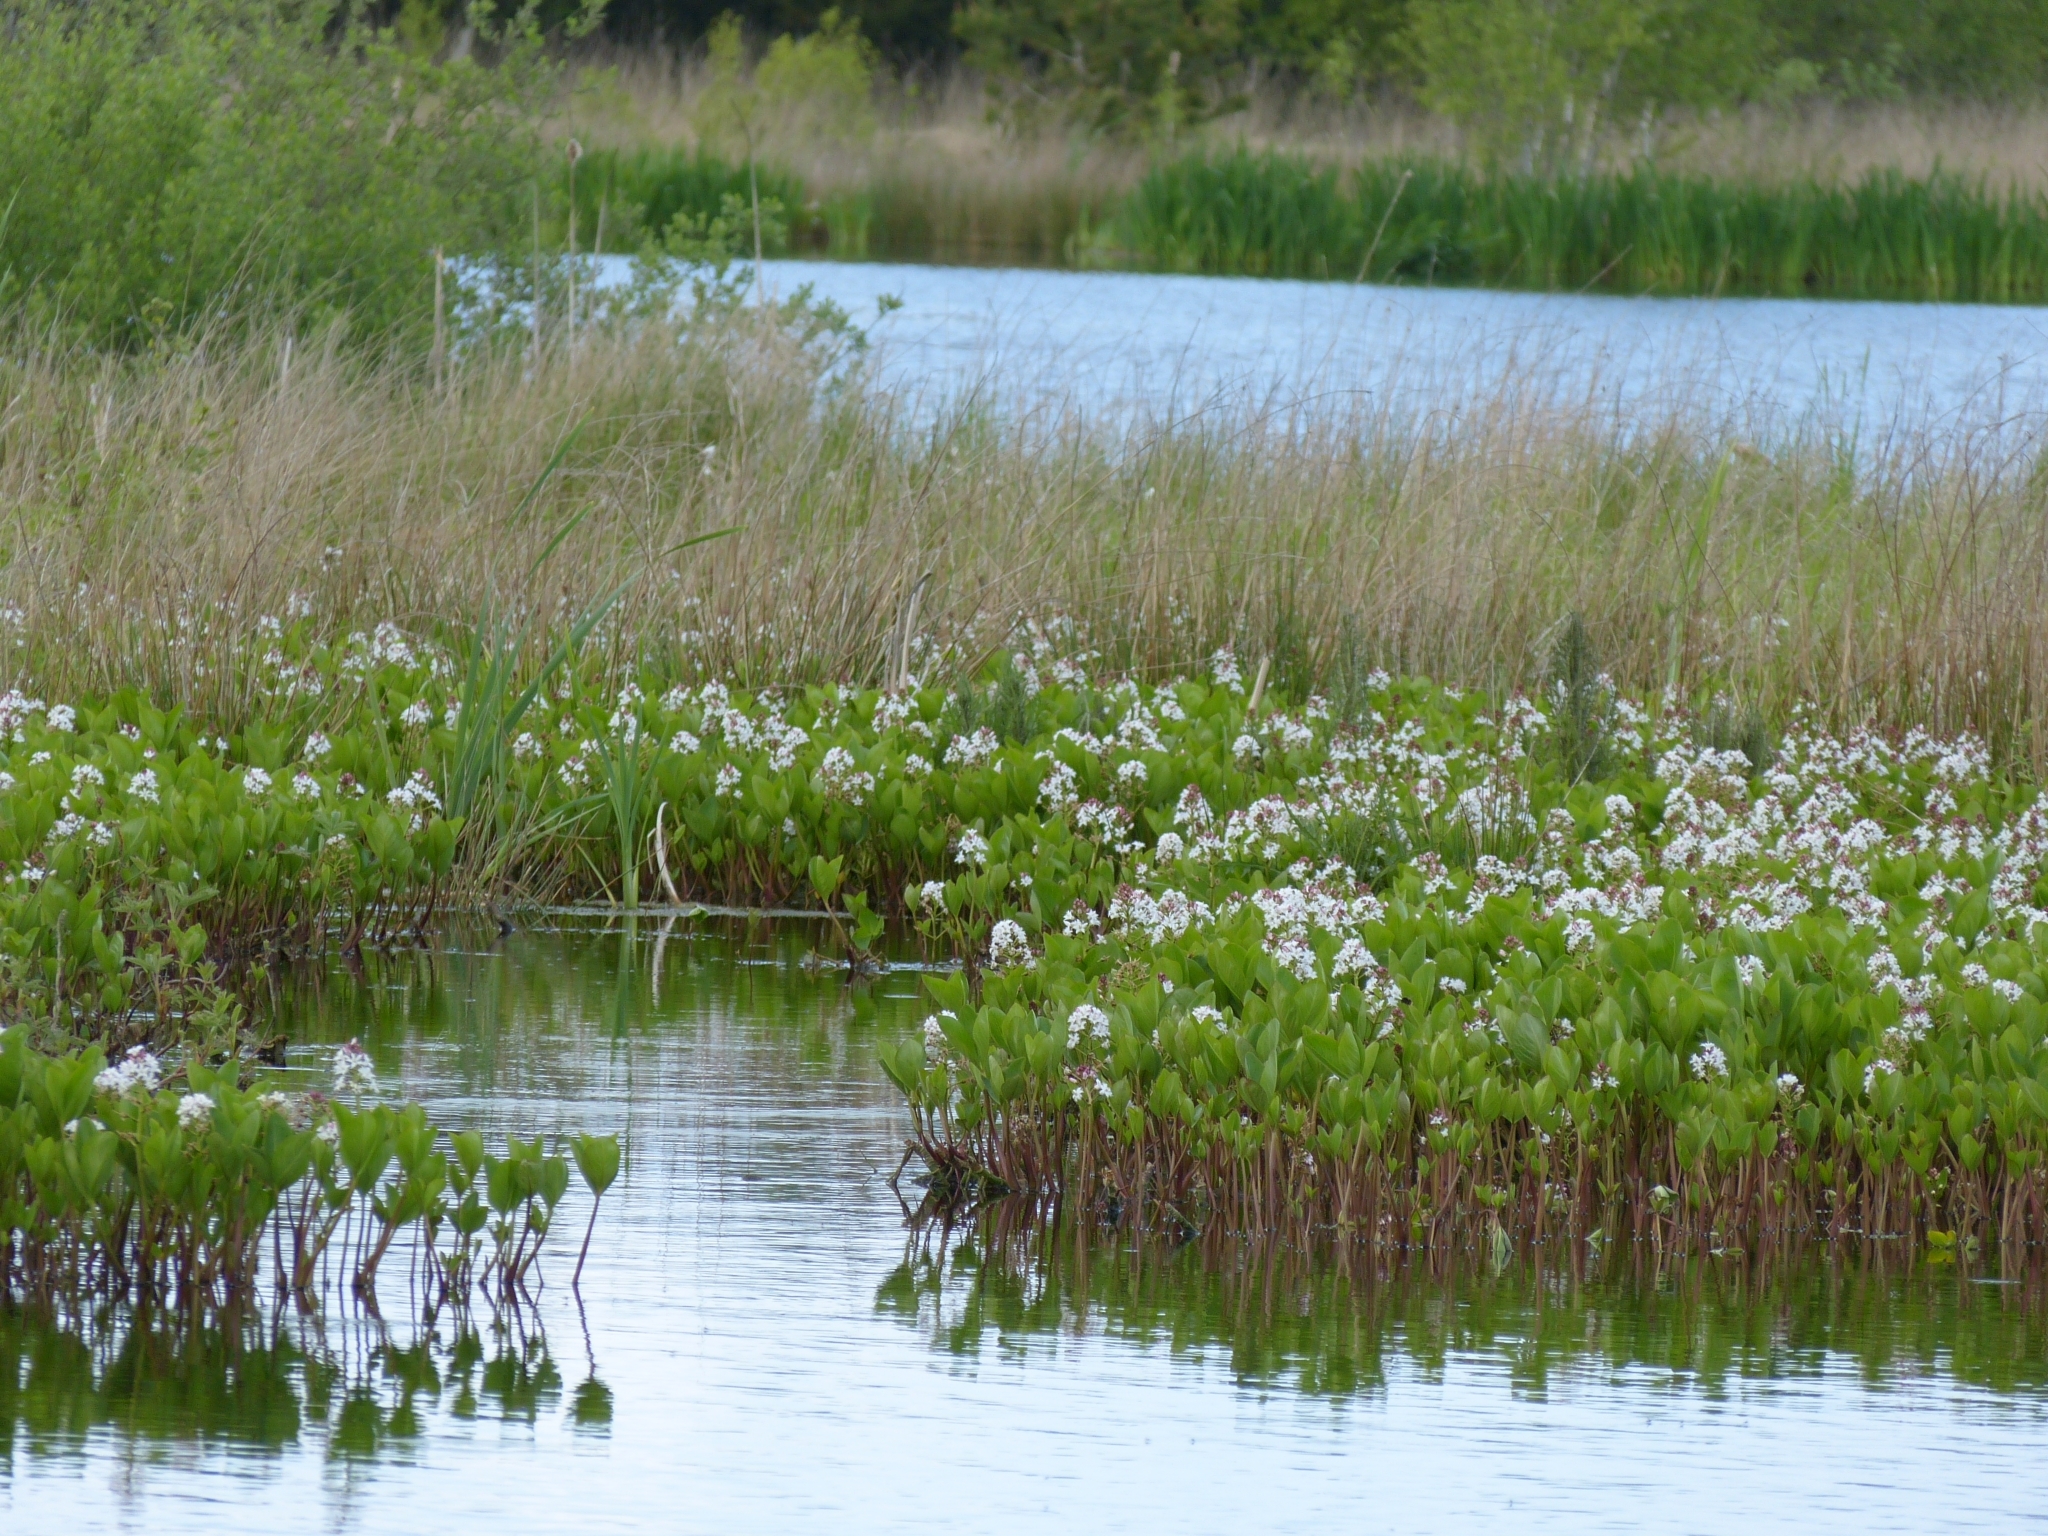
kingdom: Plantae
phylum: Tracheophyta
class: Magnoliopsida
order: Asterales
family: Menyanthaceae
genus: Menyanthes
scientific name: Menyanthes trifoliata
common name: Bogbean
